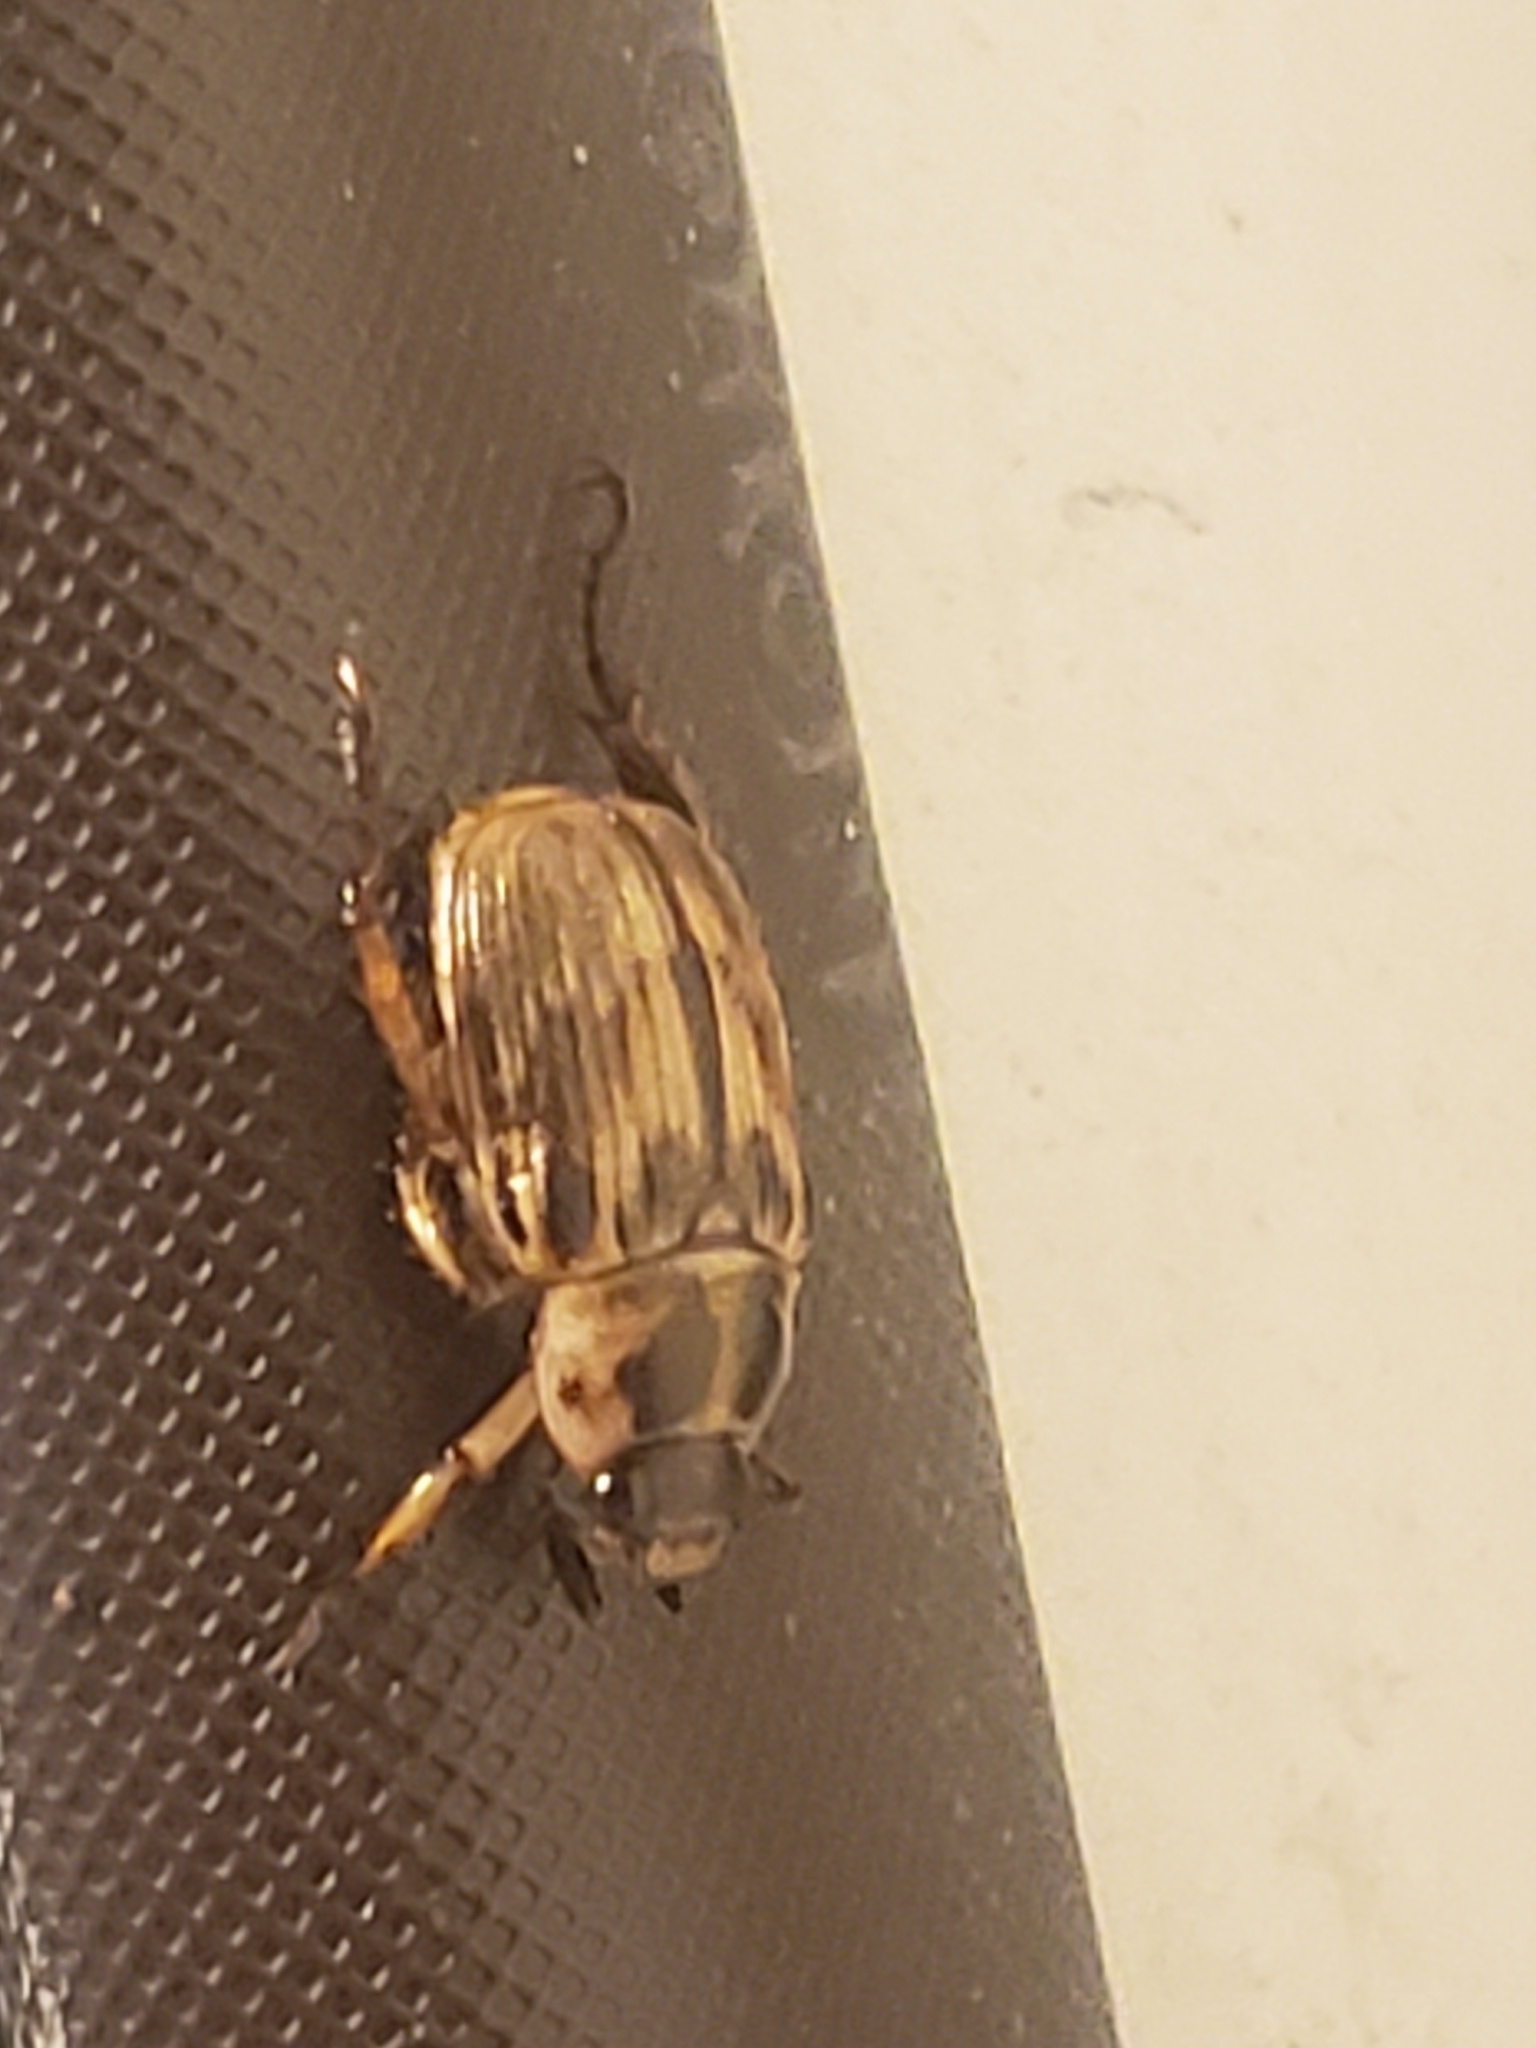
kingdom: Animalia
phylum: Arthropoda
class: Insecta
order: Coleoptera
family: Scarabaeidae
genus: Exomala
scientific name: Exomala orientalis
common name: Oriental beetle
